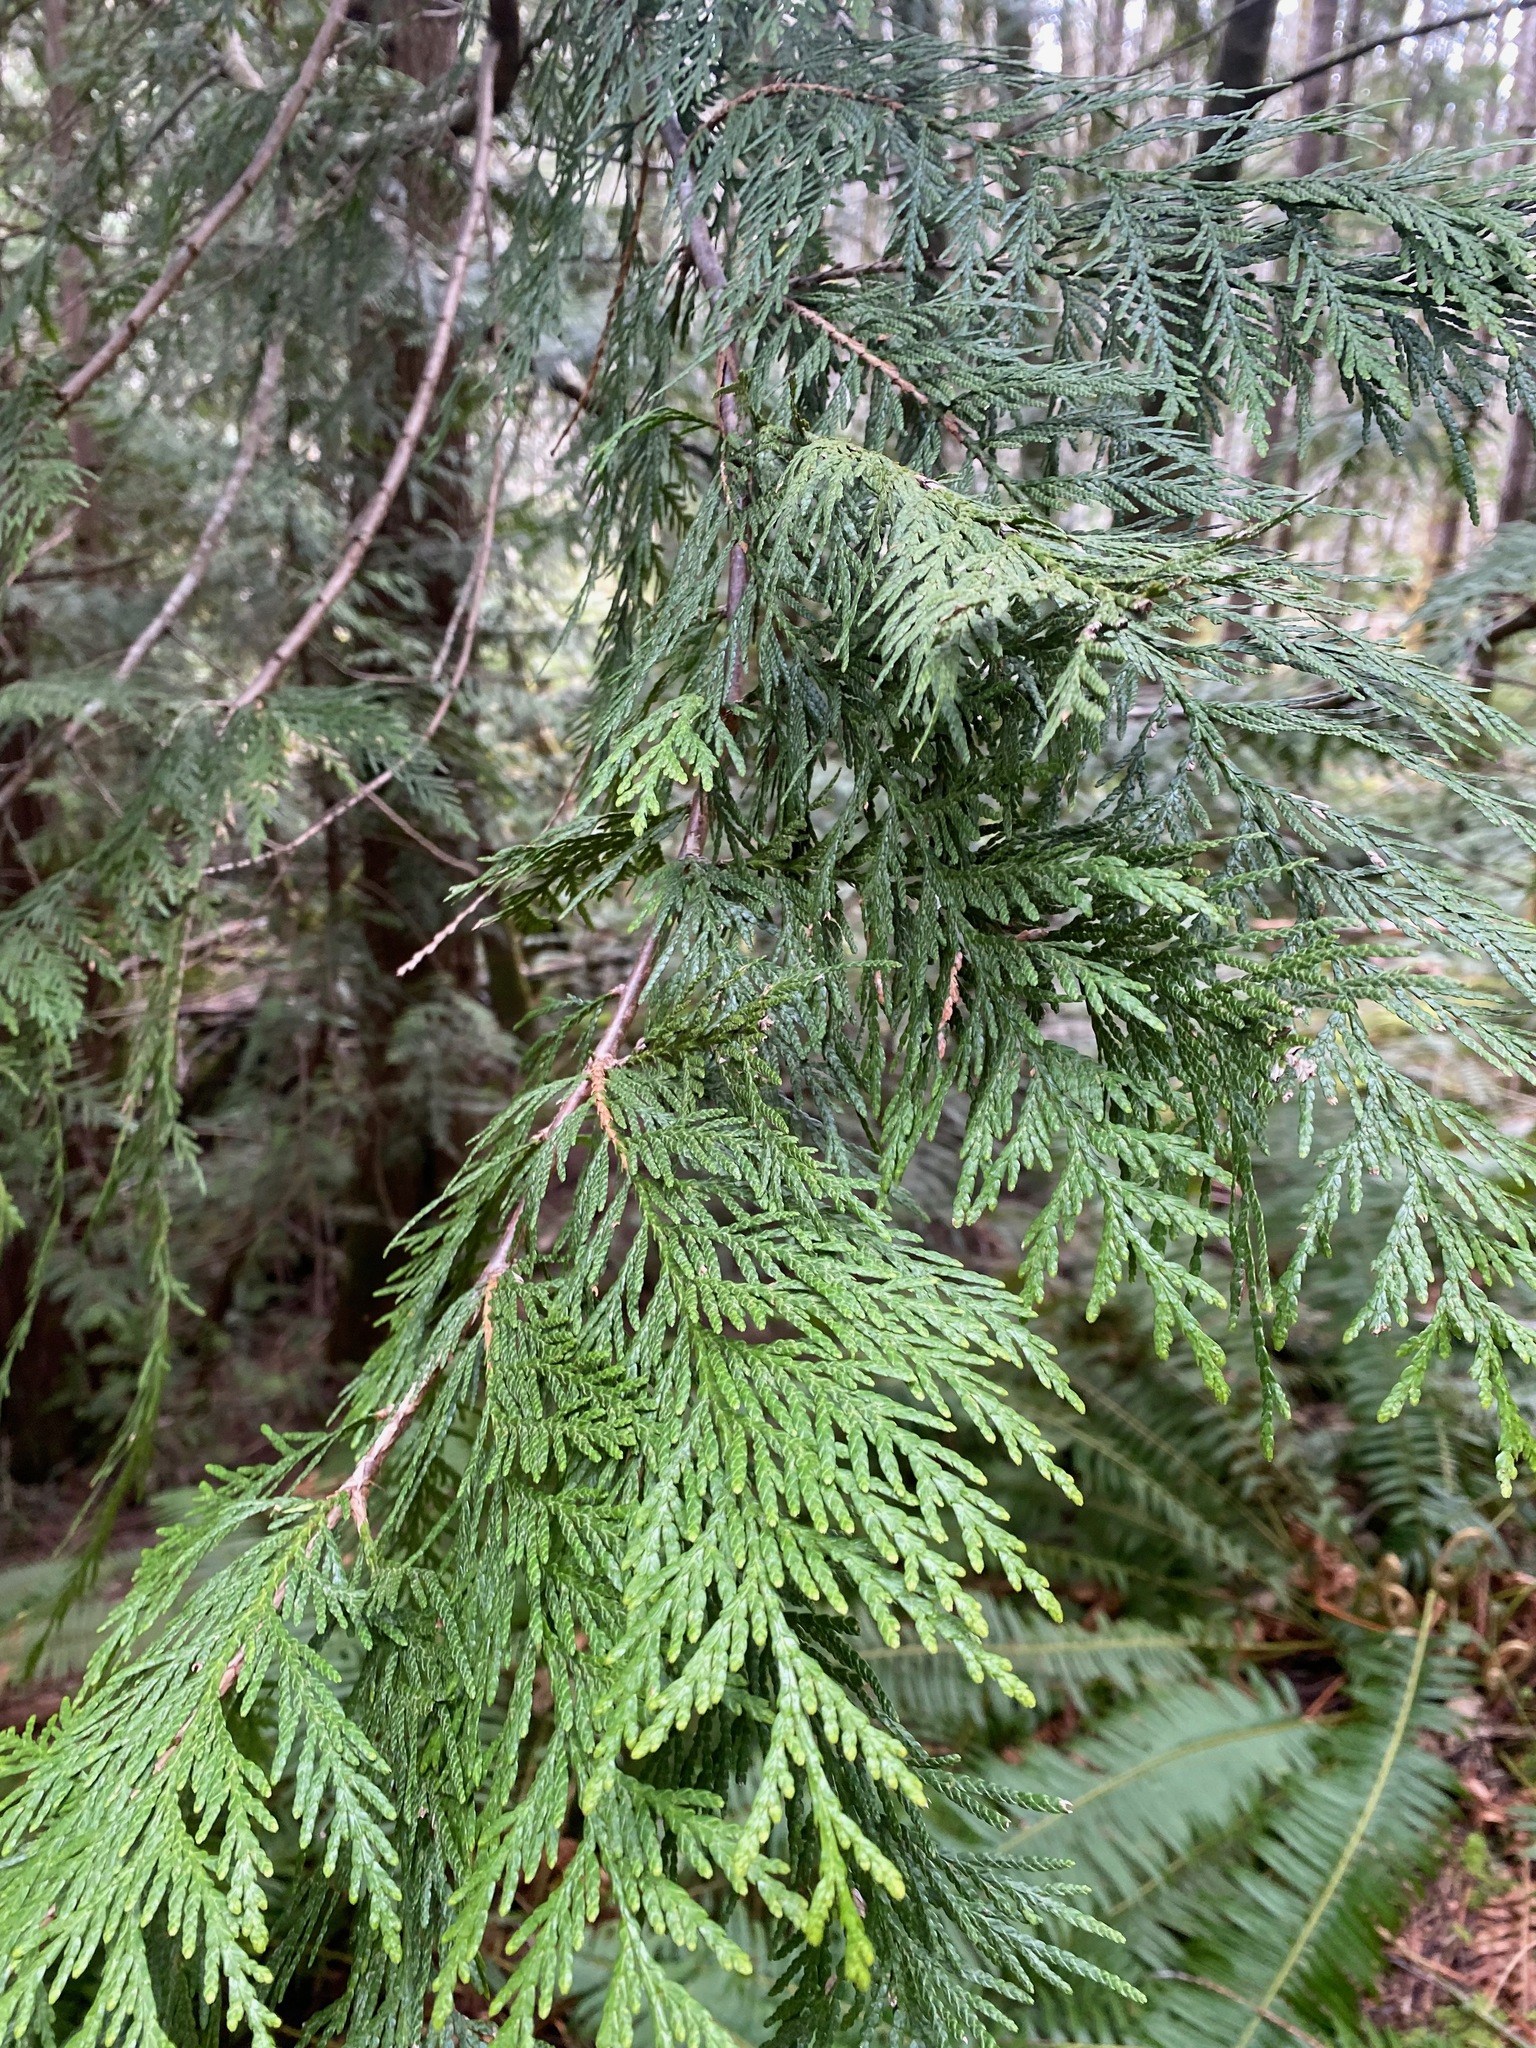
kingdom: Plantae
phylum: Tracheophyta
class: Pinopsida
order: Pinales
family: Cupressaceae
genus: Thuja
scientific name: Thuja plicata
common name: Western red-cedar
